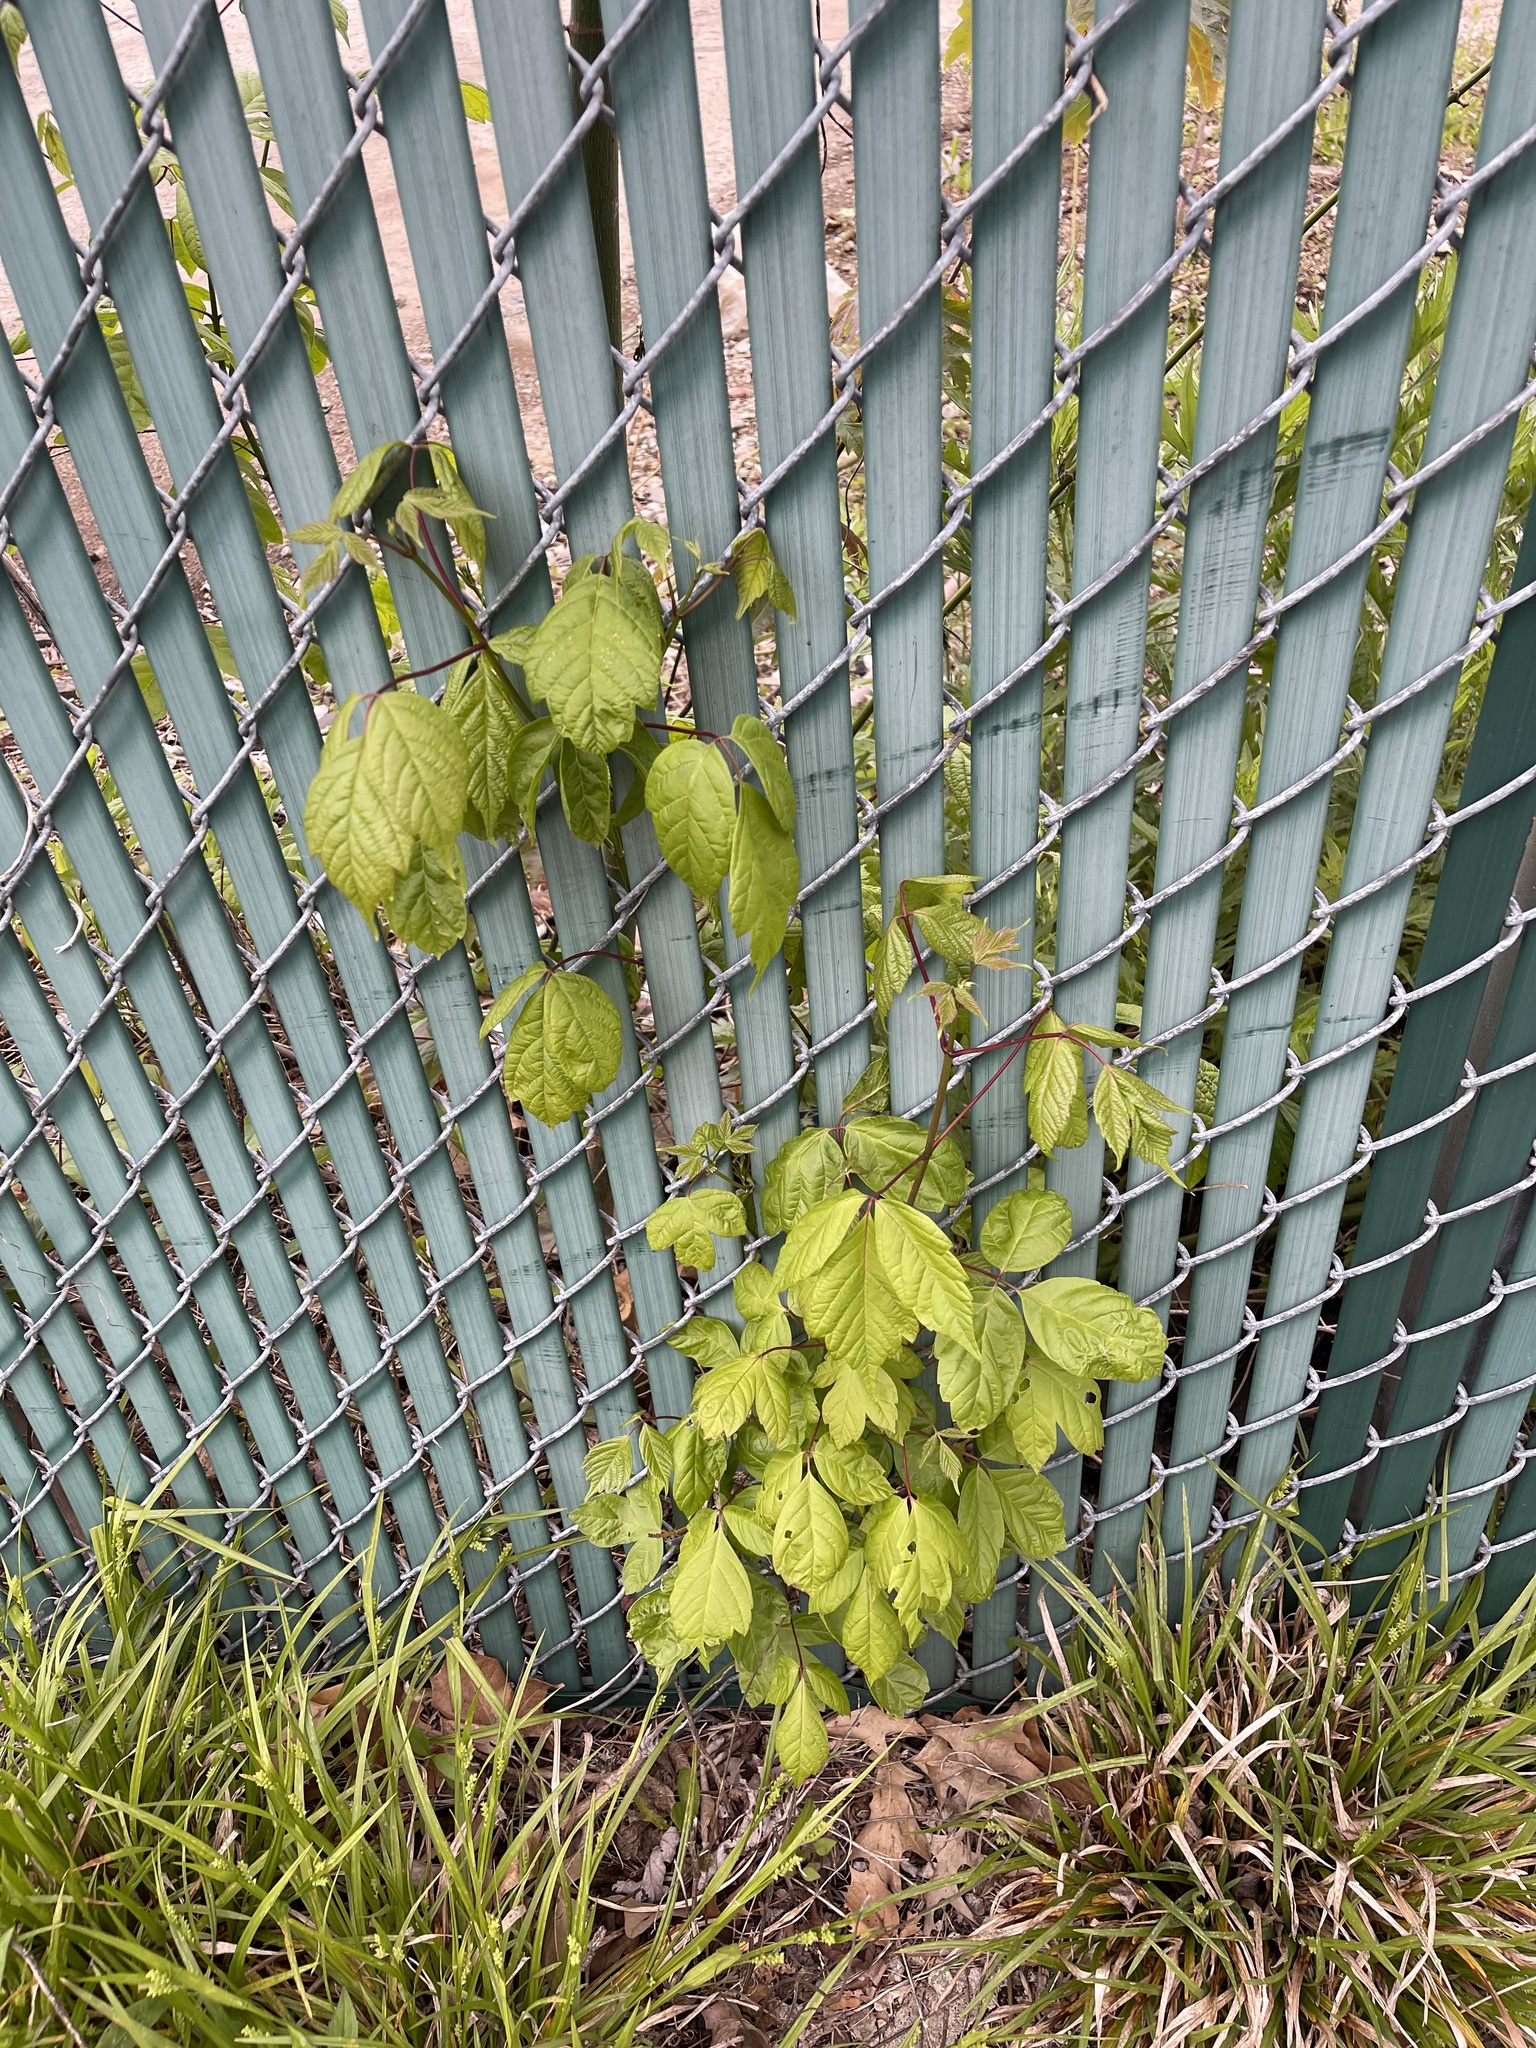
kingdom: Plantae
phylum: Tracheophyta
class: Magnoliopsida
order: Sapindales
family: Sapindaceae
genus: Acer
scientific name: Acer negundo
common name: Ashleaf maple
